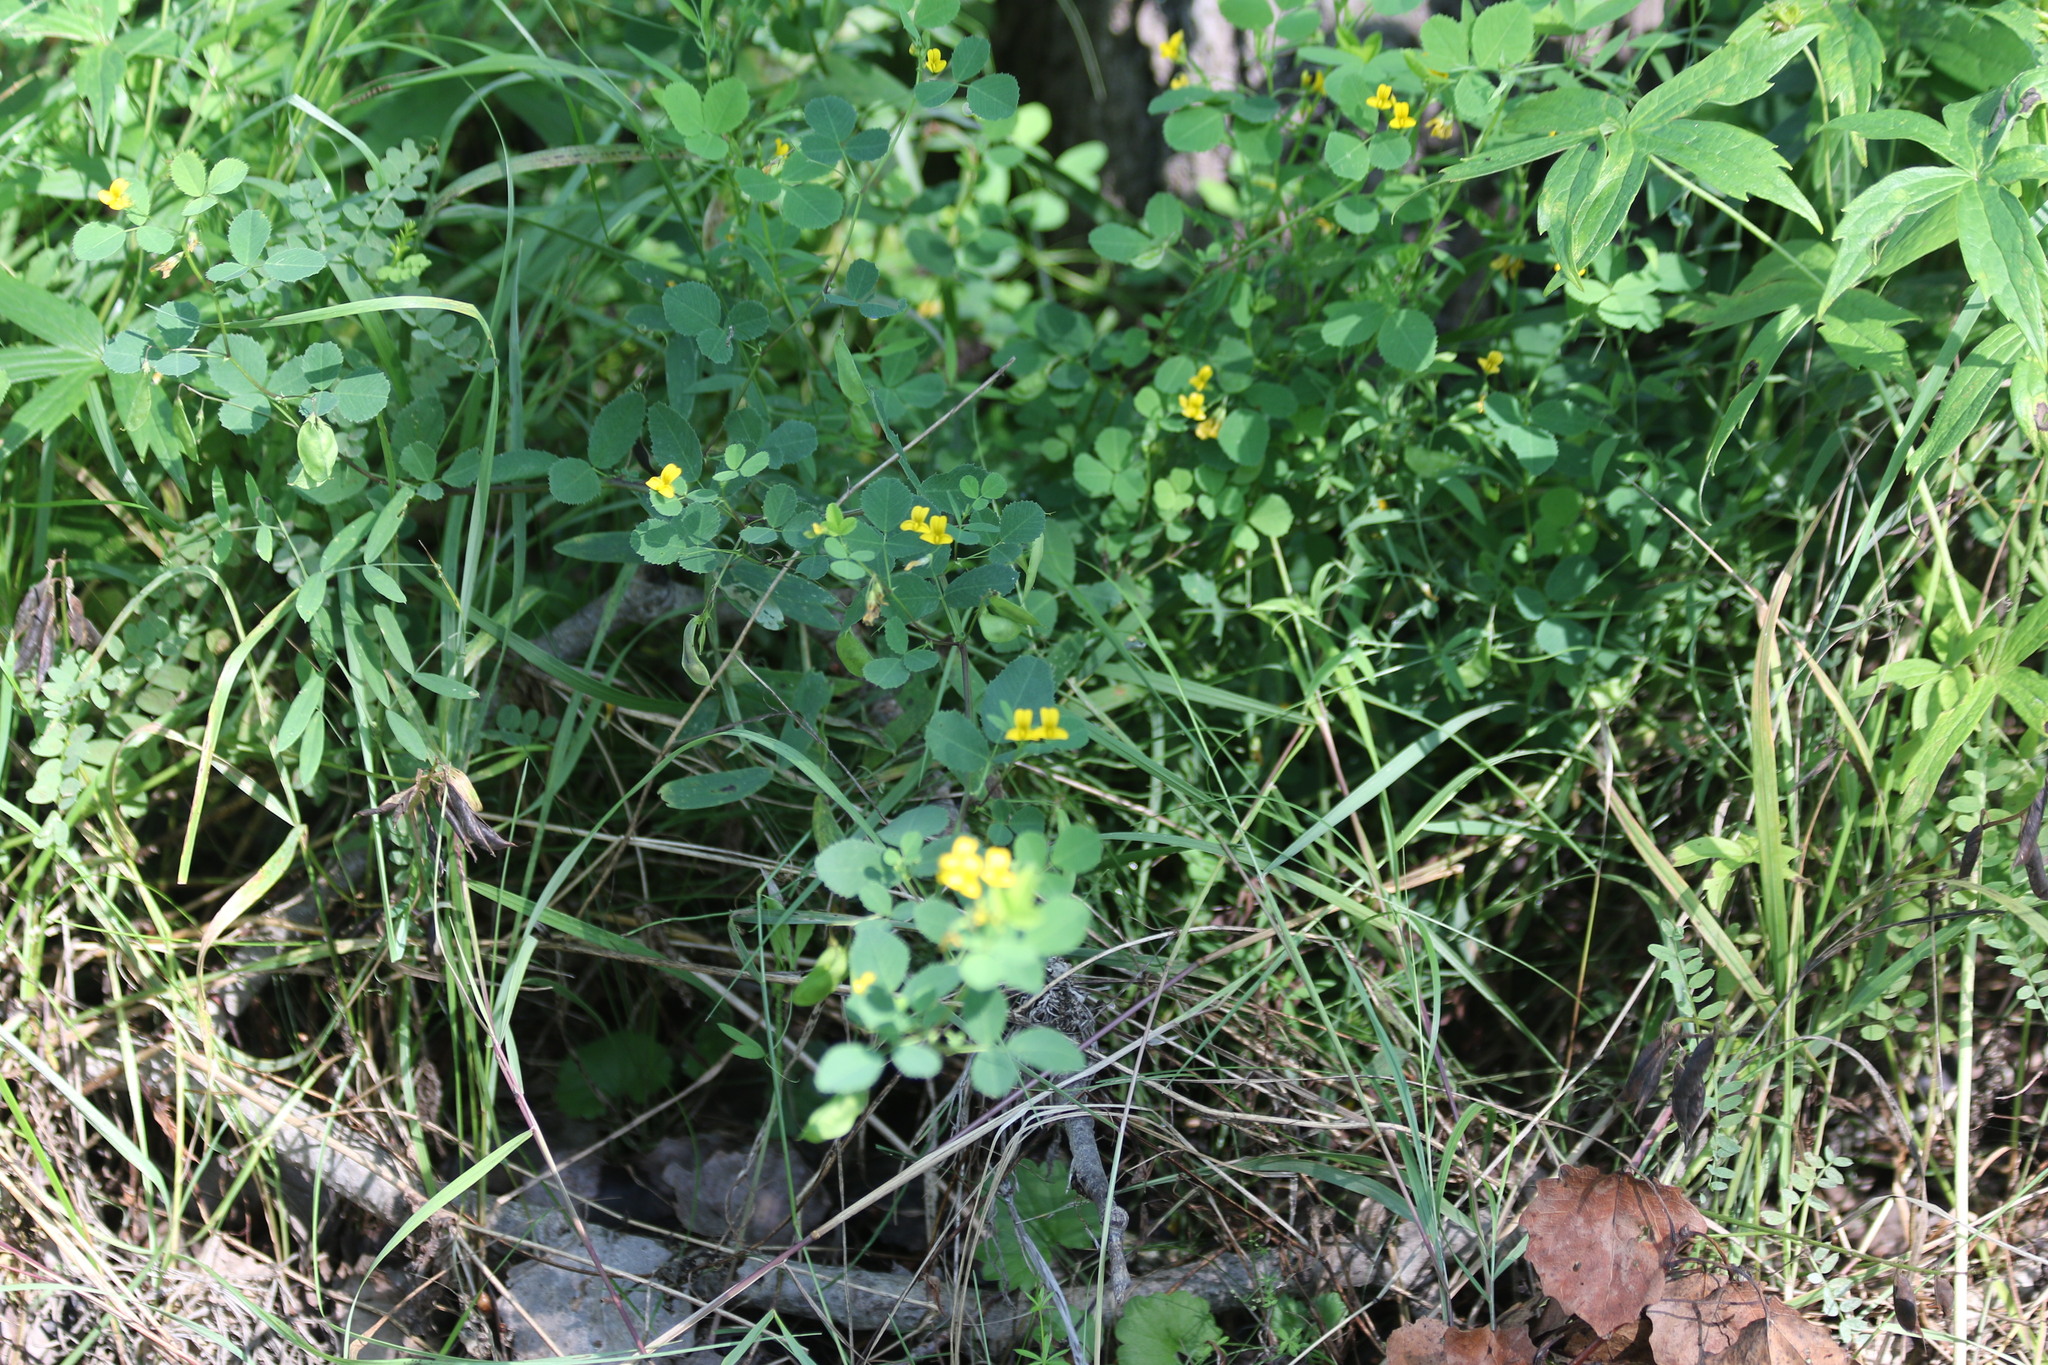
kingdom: Plantae
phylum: Tracheophyta
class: Magnoliopsida
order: Fabales
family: Fabaceae
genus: Medicago
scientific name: Medicago platycarpos
